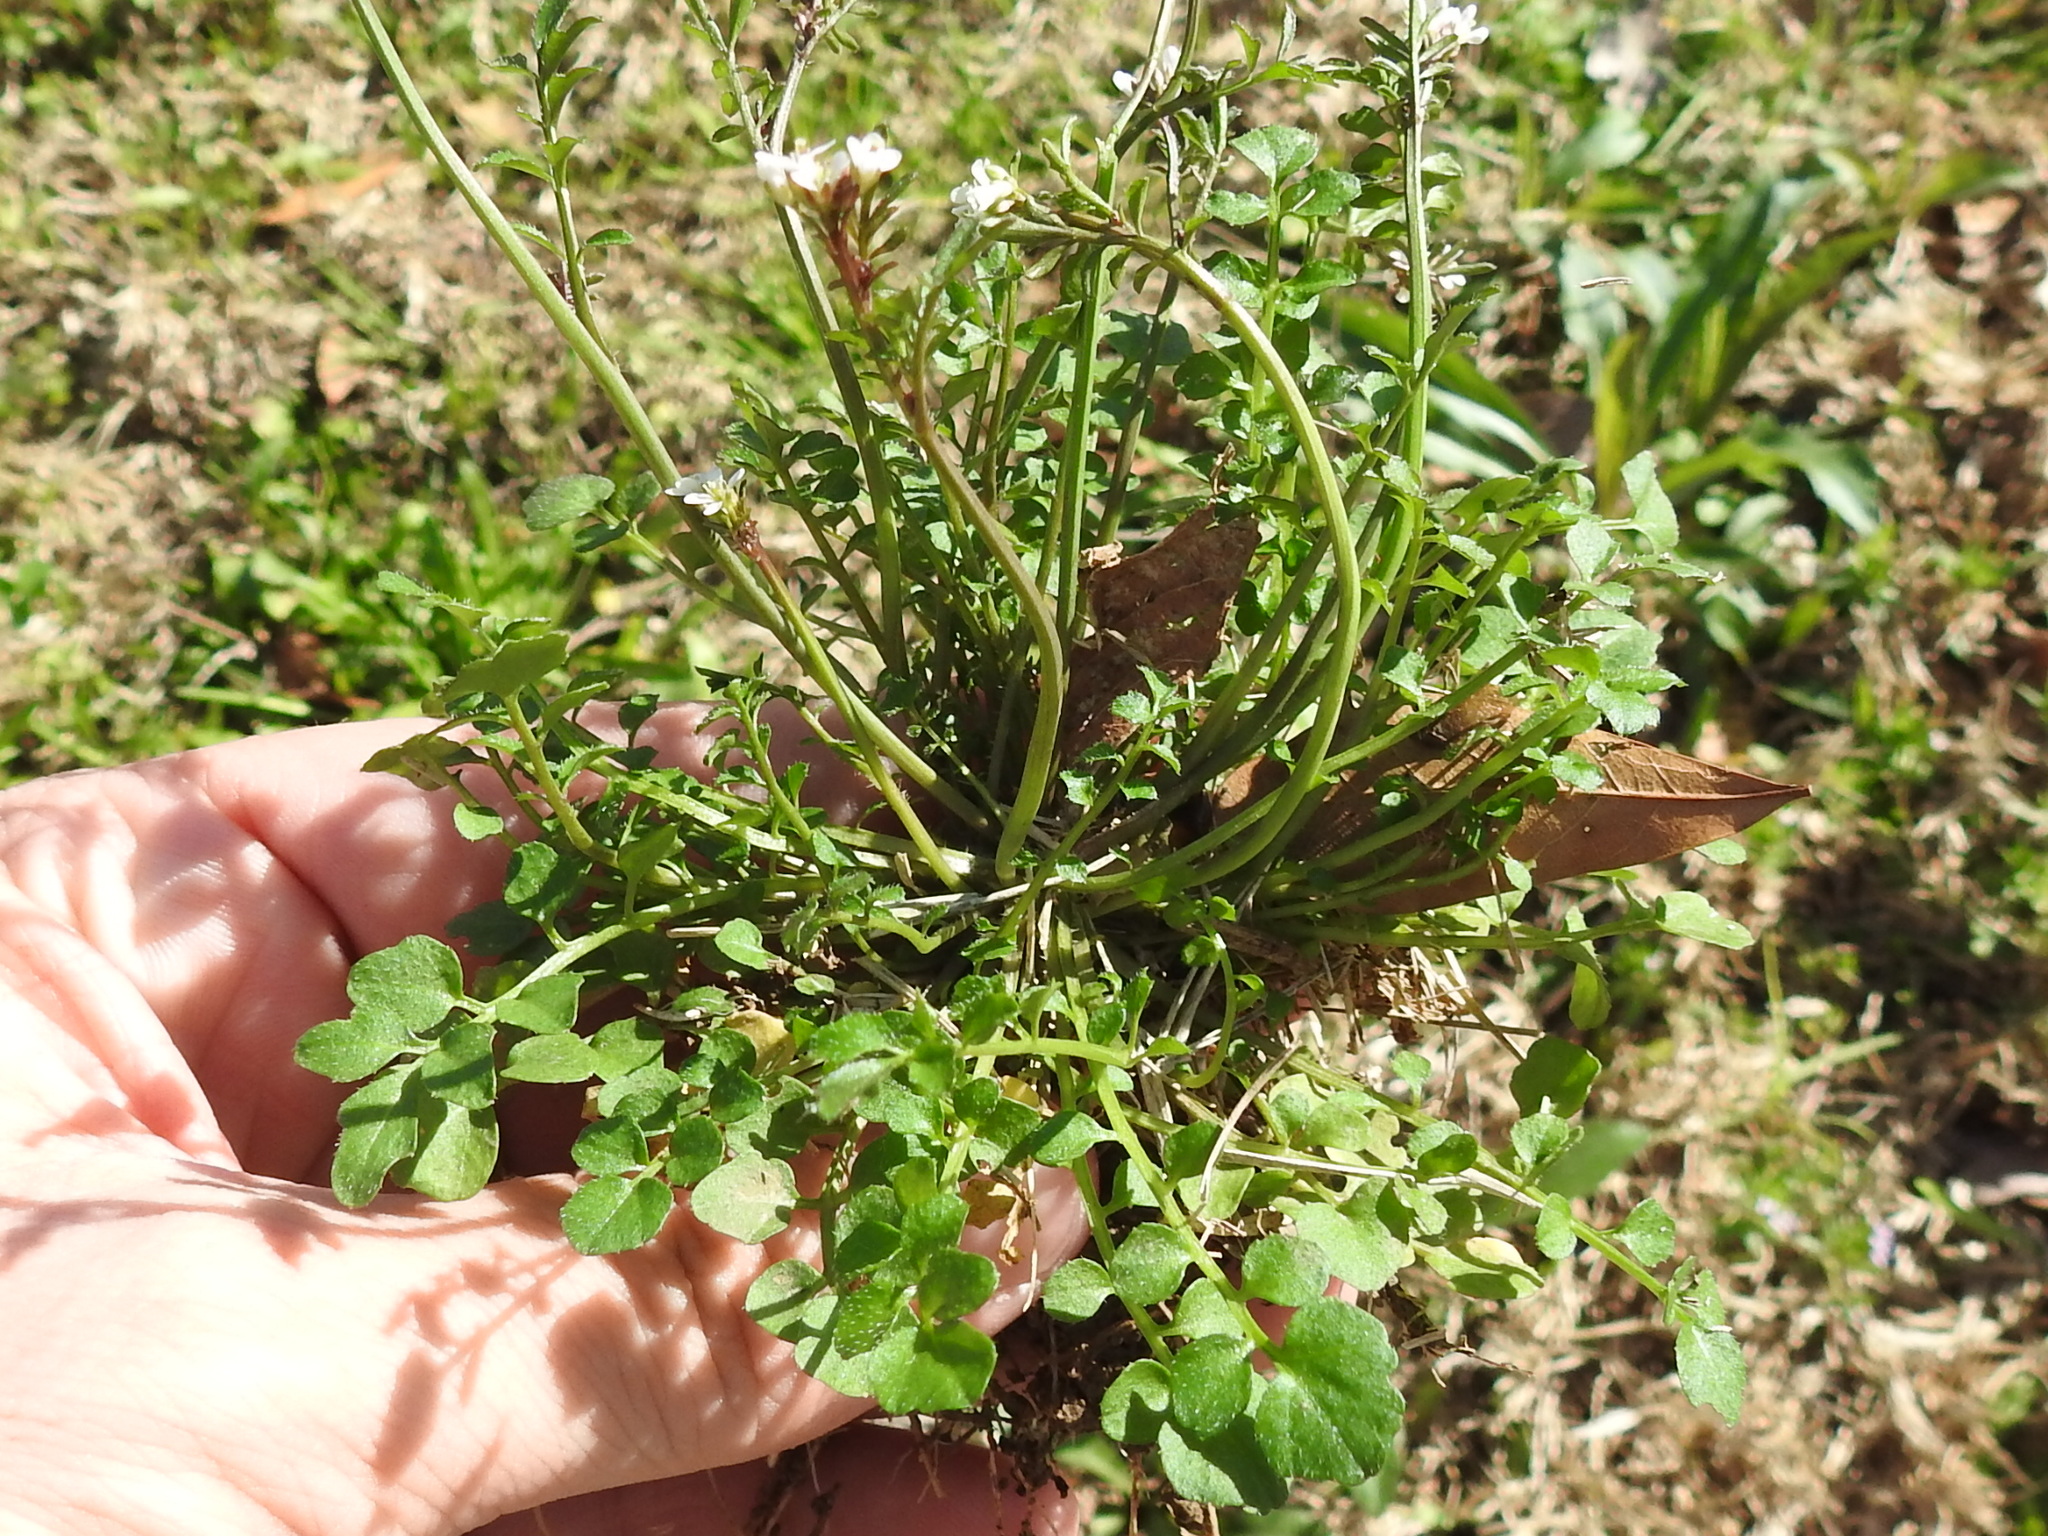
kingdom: Plantae
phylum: Tracheophyta
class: Magnoliopsida
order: Brassicales
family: Brassicaceae
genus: Cardamine
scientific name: Cardamine hirsuta
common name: Hairy bittercress
